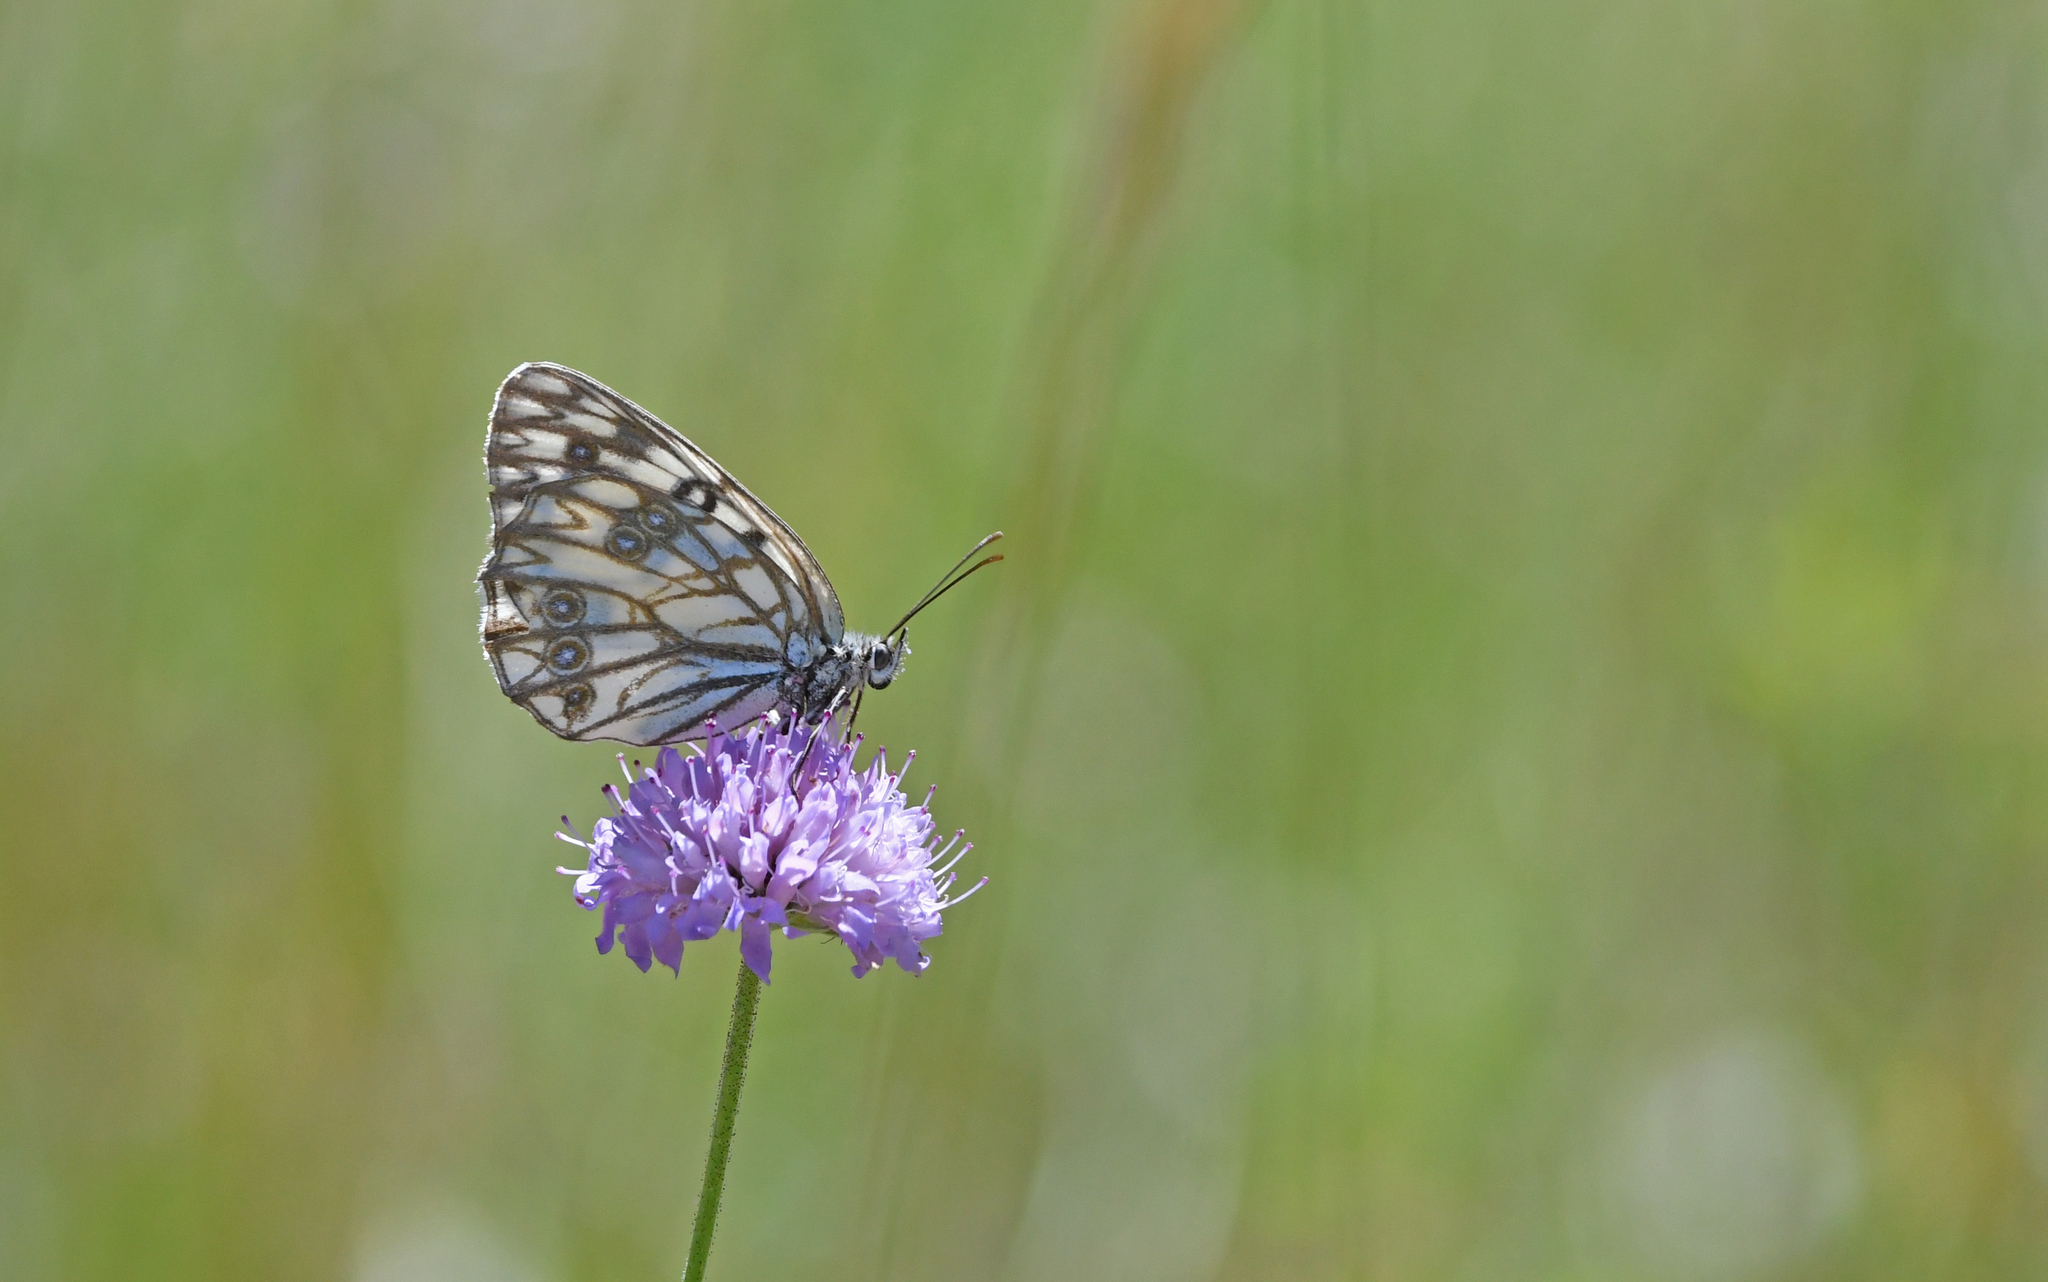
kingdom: Animalia
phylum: Arthropoda
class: Insecta
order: Lepidoptera
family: Nymphalidae
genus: Melanargia
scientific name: Melanargia occitanica
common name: Western marbled white
